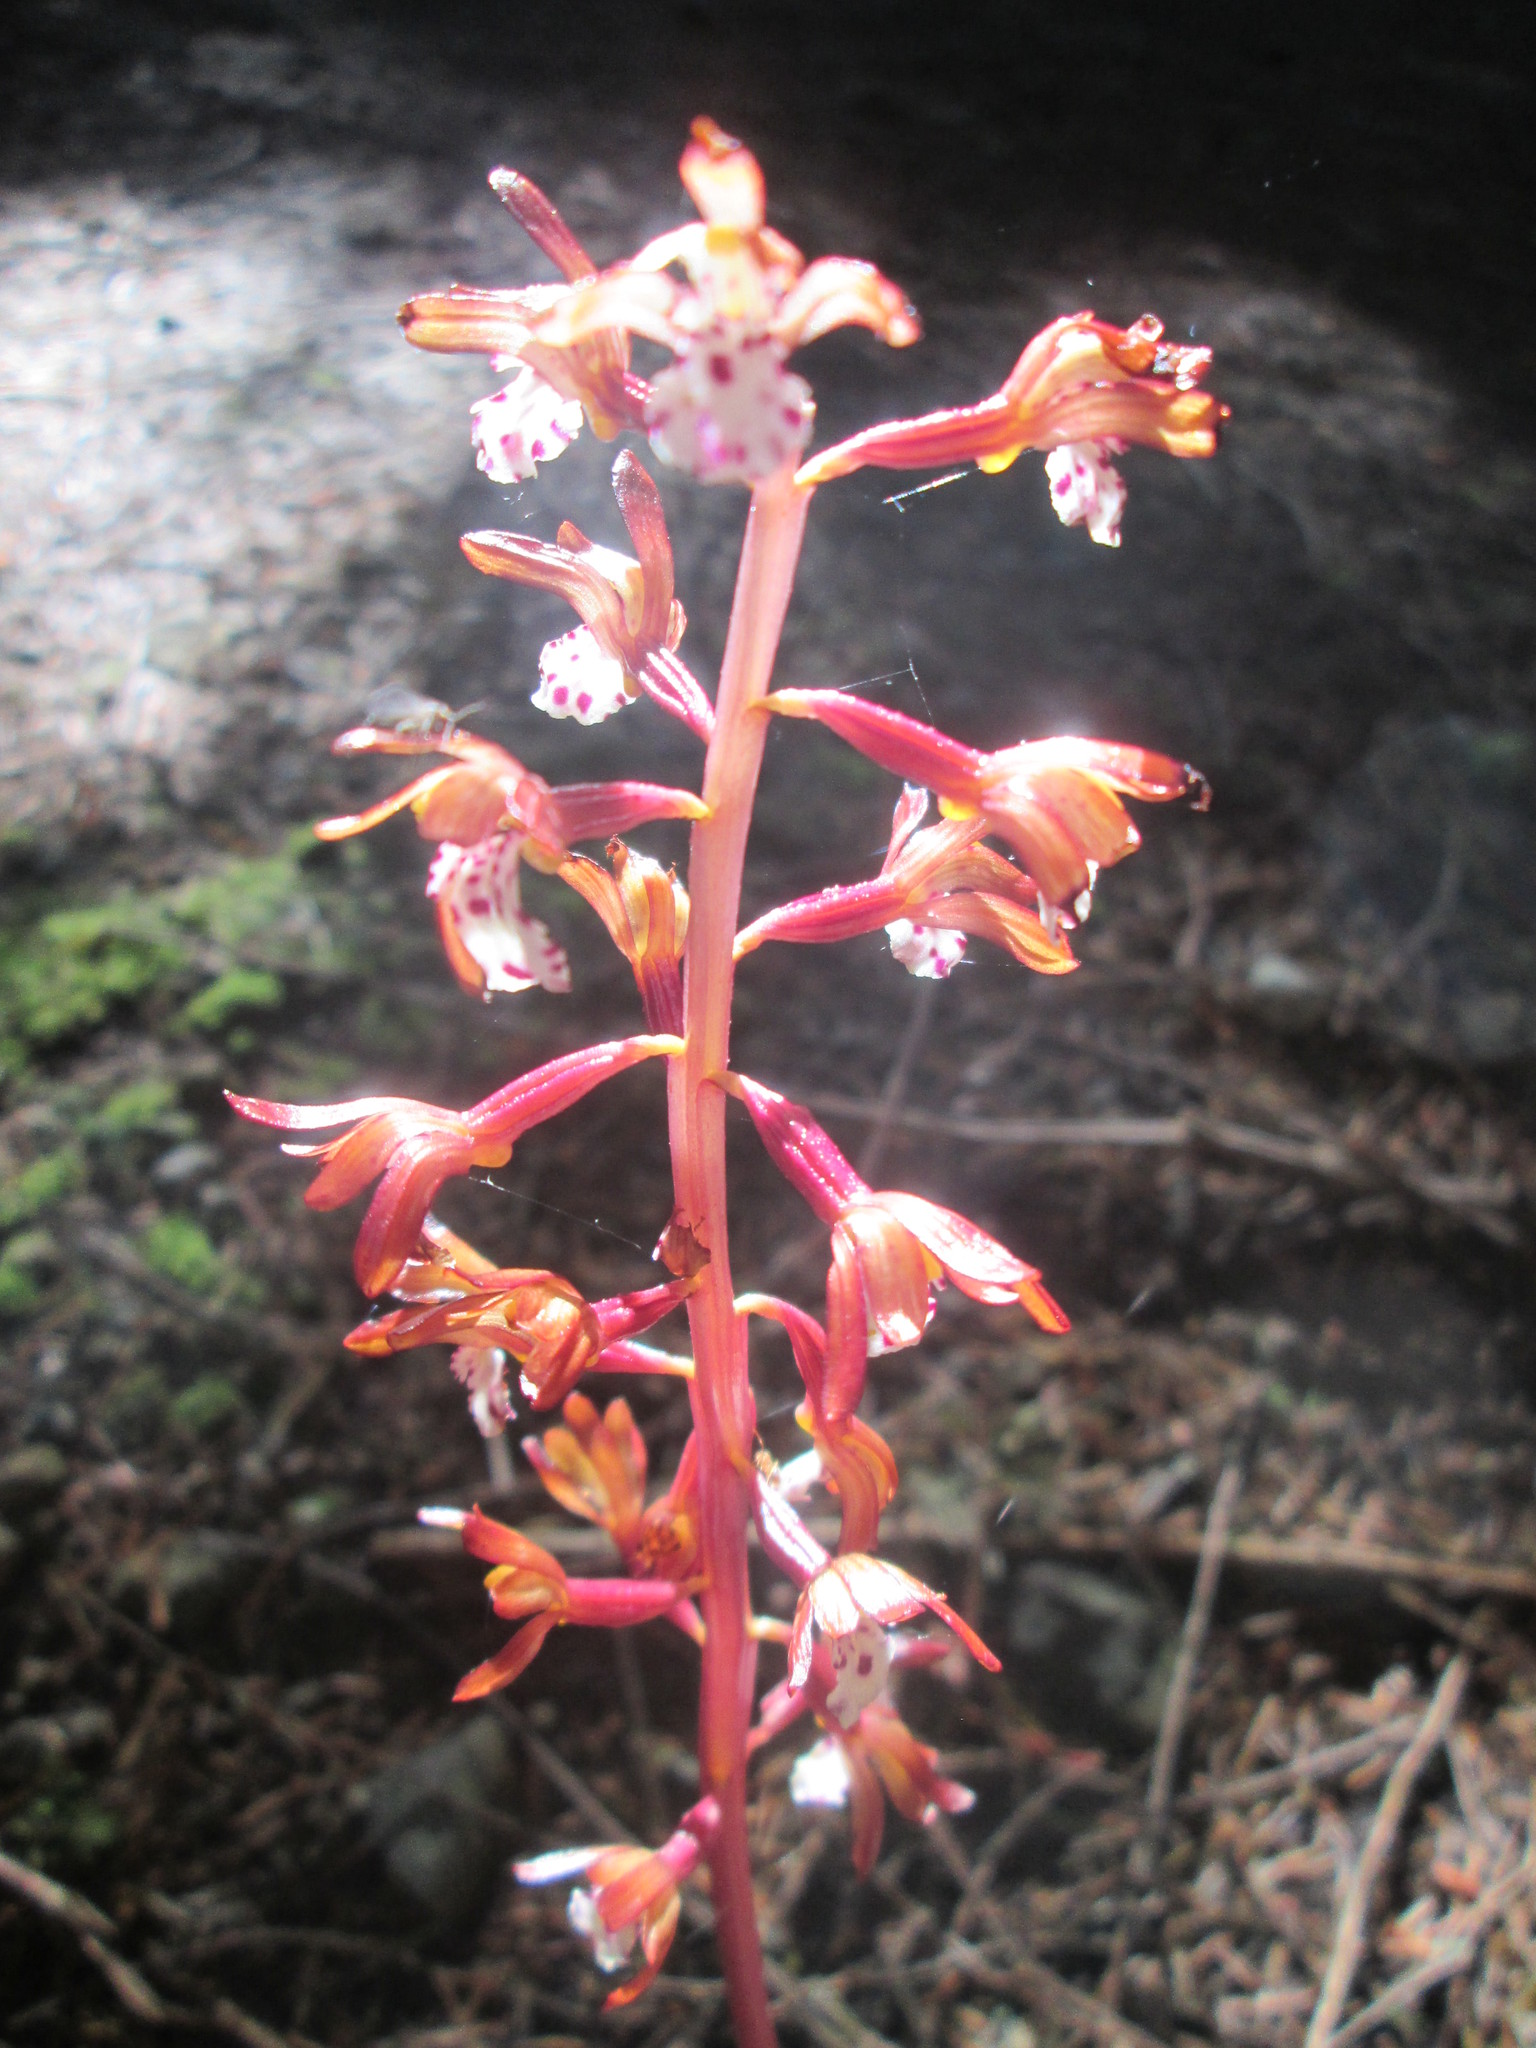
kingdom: Plantae
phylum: Tracheophyta
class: Liliopsida
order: Asparagales
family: Orchidaceae
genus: Corallorhiza
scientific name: Corallorhiza maculata
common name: Spotted coralroot
